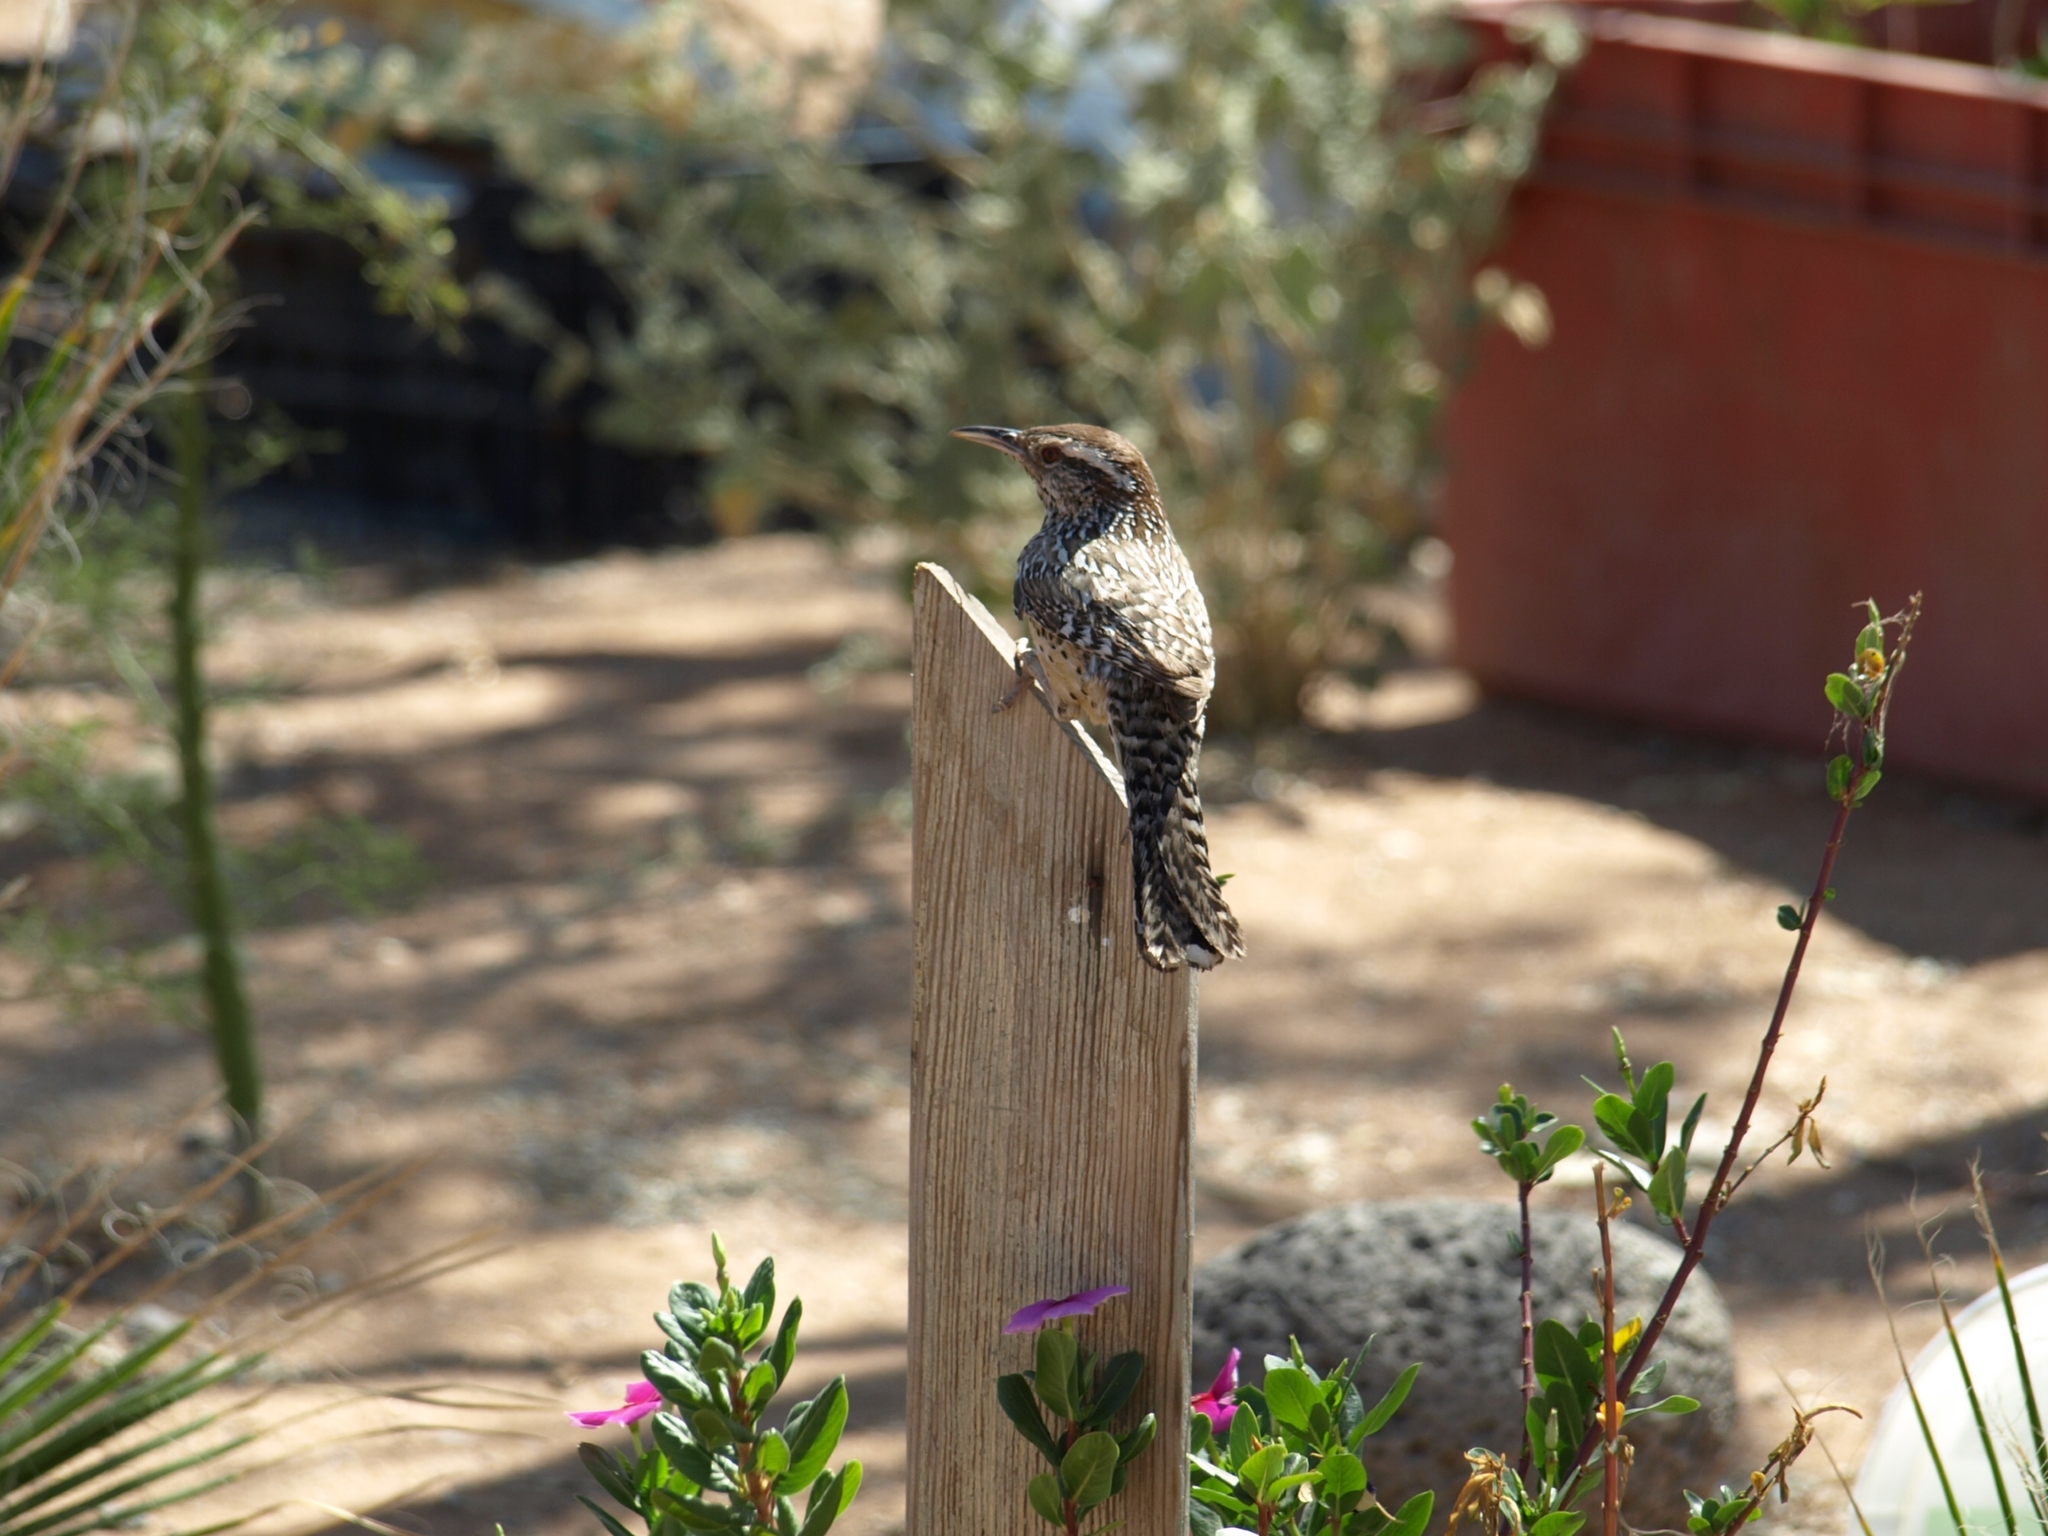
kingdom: Animalia
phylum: Chordata
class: Aves
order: Passeriformes
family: Troglodytidae
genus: Campylorhynchus
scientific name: Campylorhynchus brunneicapillus
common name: Cactus wren
